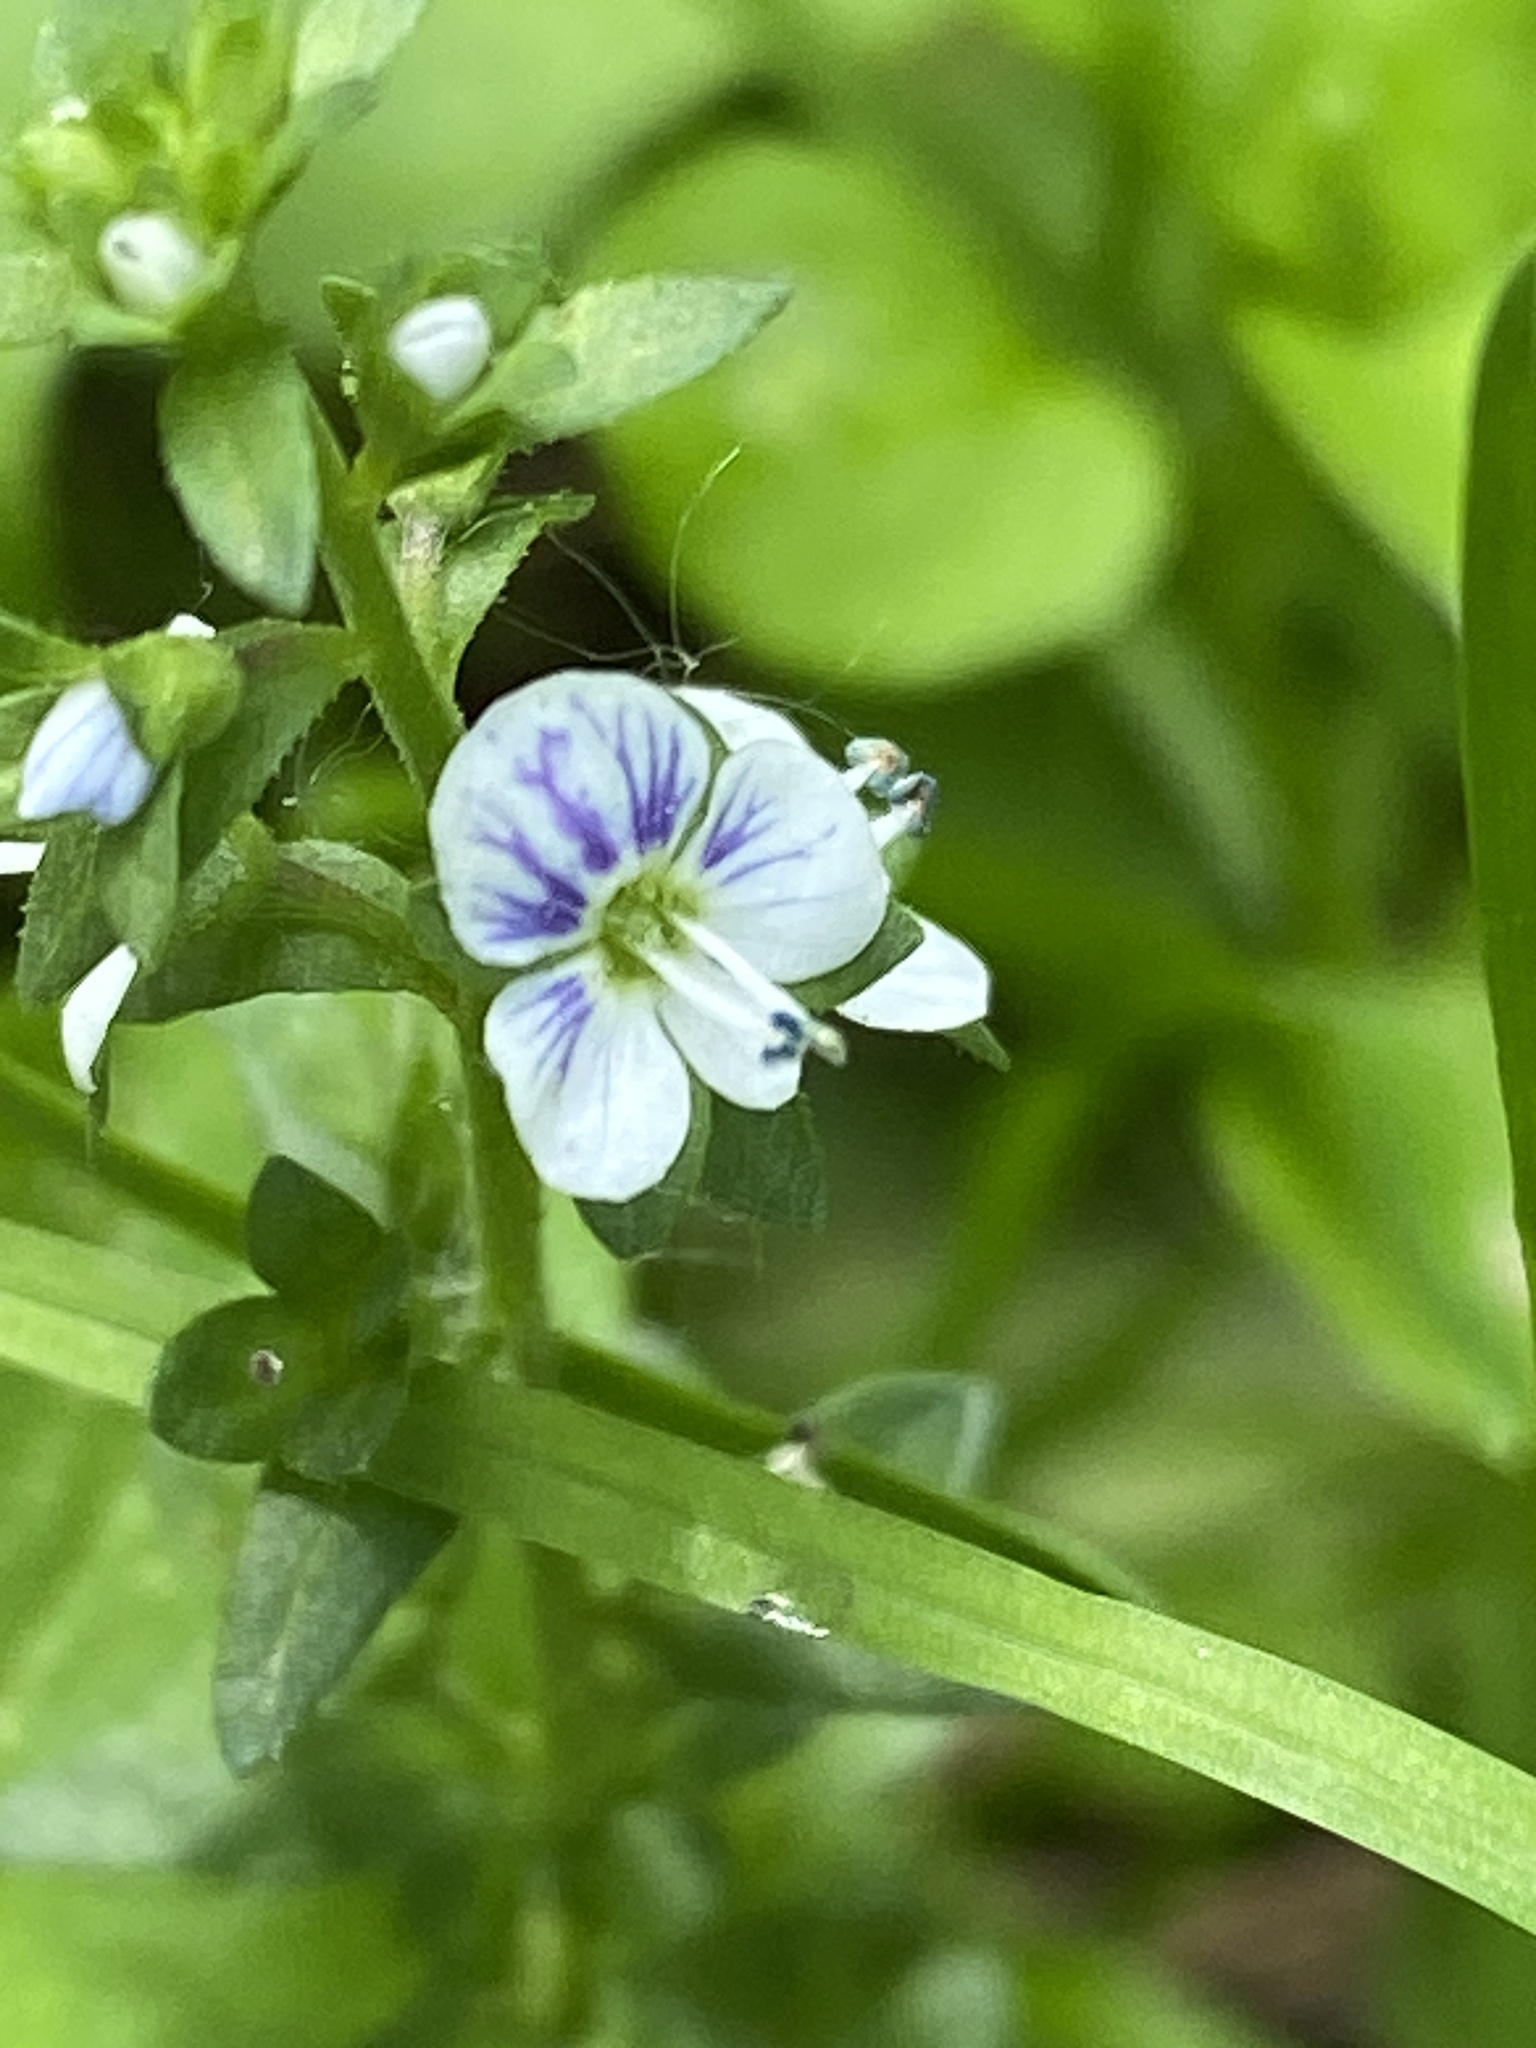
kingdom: Plantae
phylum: Tracheophyta
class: Magnoliopsida
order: Lamiales
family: Plantaginaceae
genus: Veronica
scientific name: Veronica serpyllifolia
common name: Thyme-leaved speedwell
